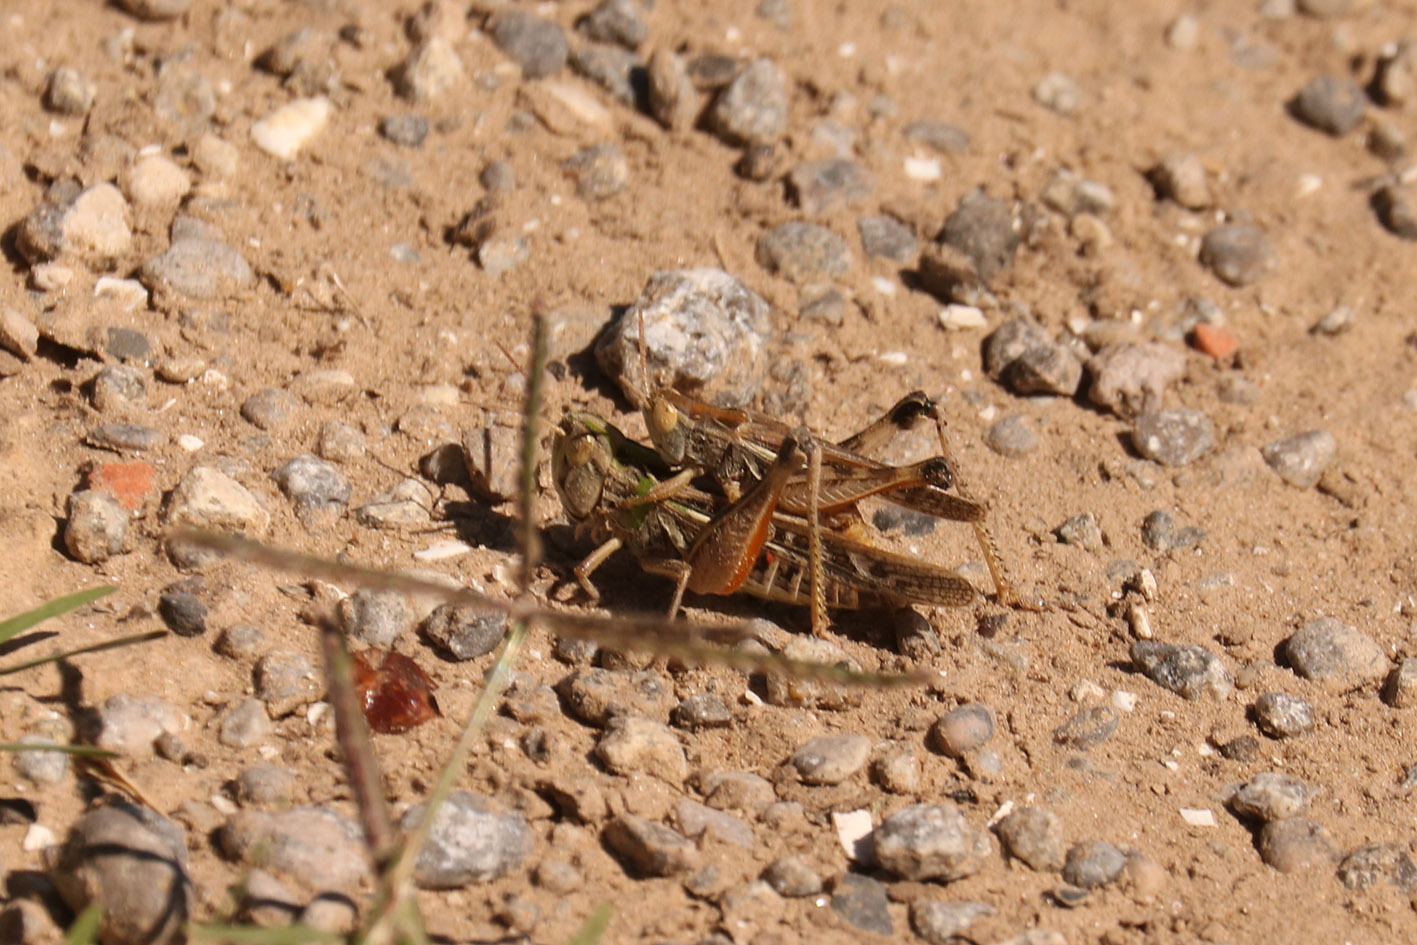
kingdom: Animalia
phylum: Arthropoda
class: Insecta
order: Orthoptera
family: Acrididae
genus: Borellia
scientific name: Borellia bruneri
